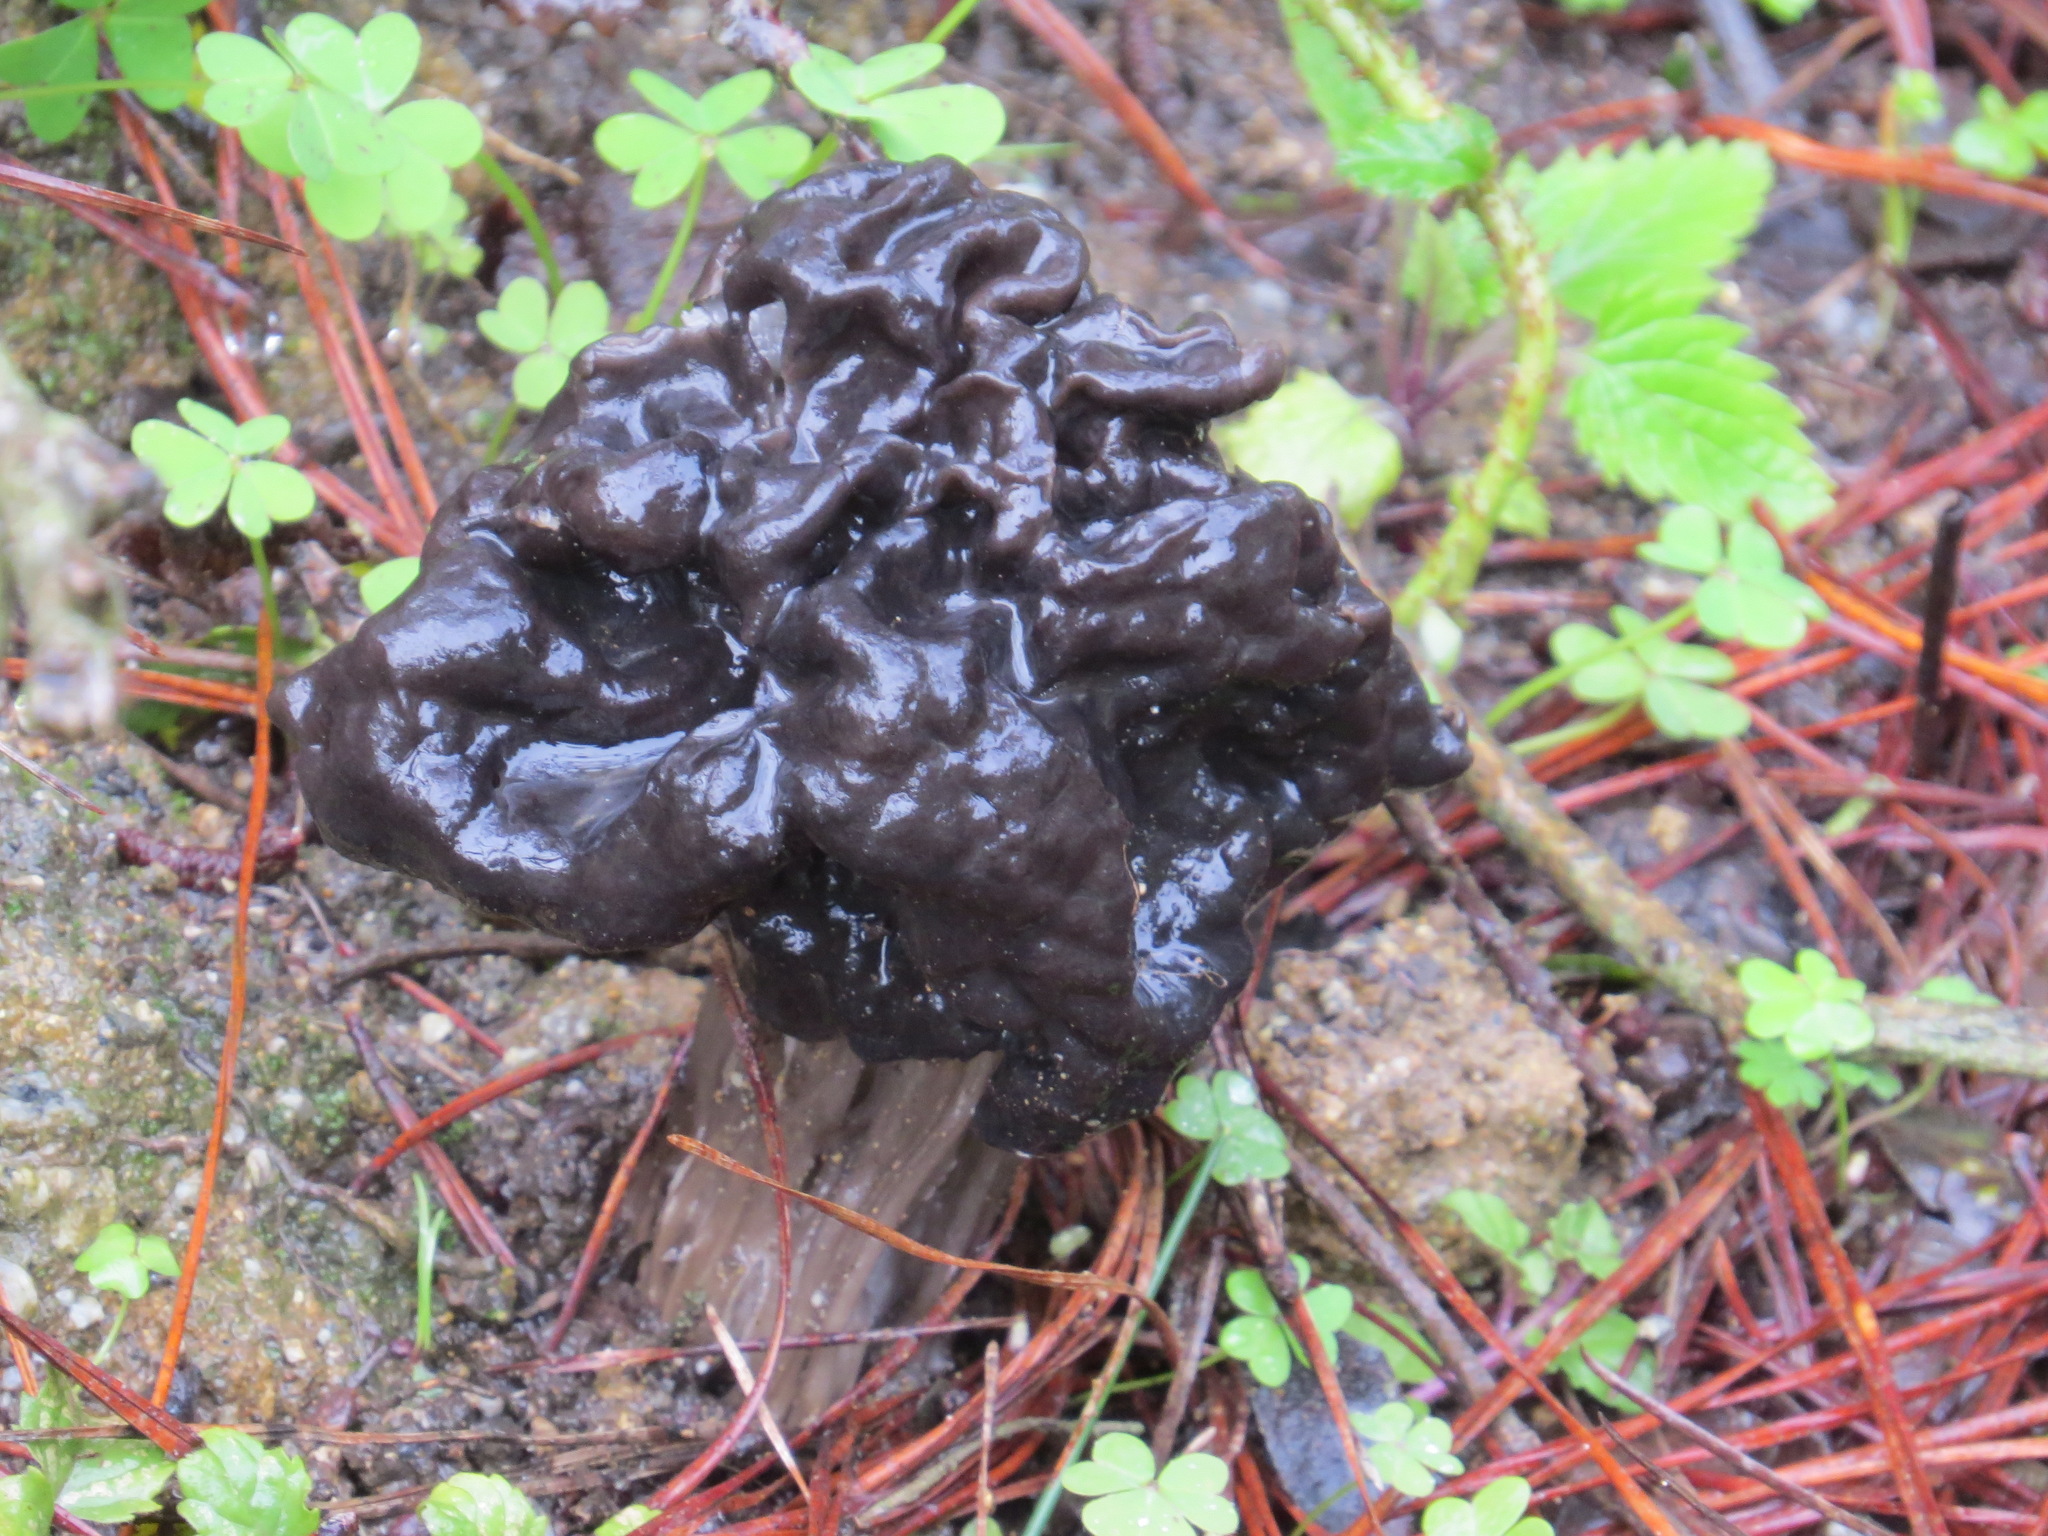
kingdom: Fungi
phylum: Ascomycota
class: Pezizomycetes
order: Pezizales
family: Helvellaceae
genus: Helvella
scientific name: Helvella vespertina
